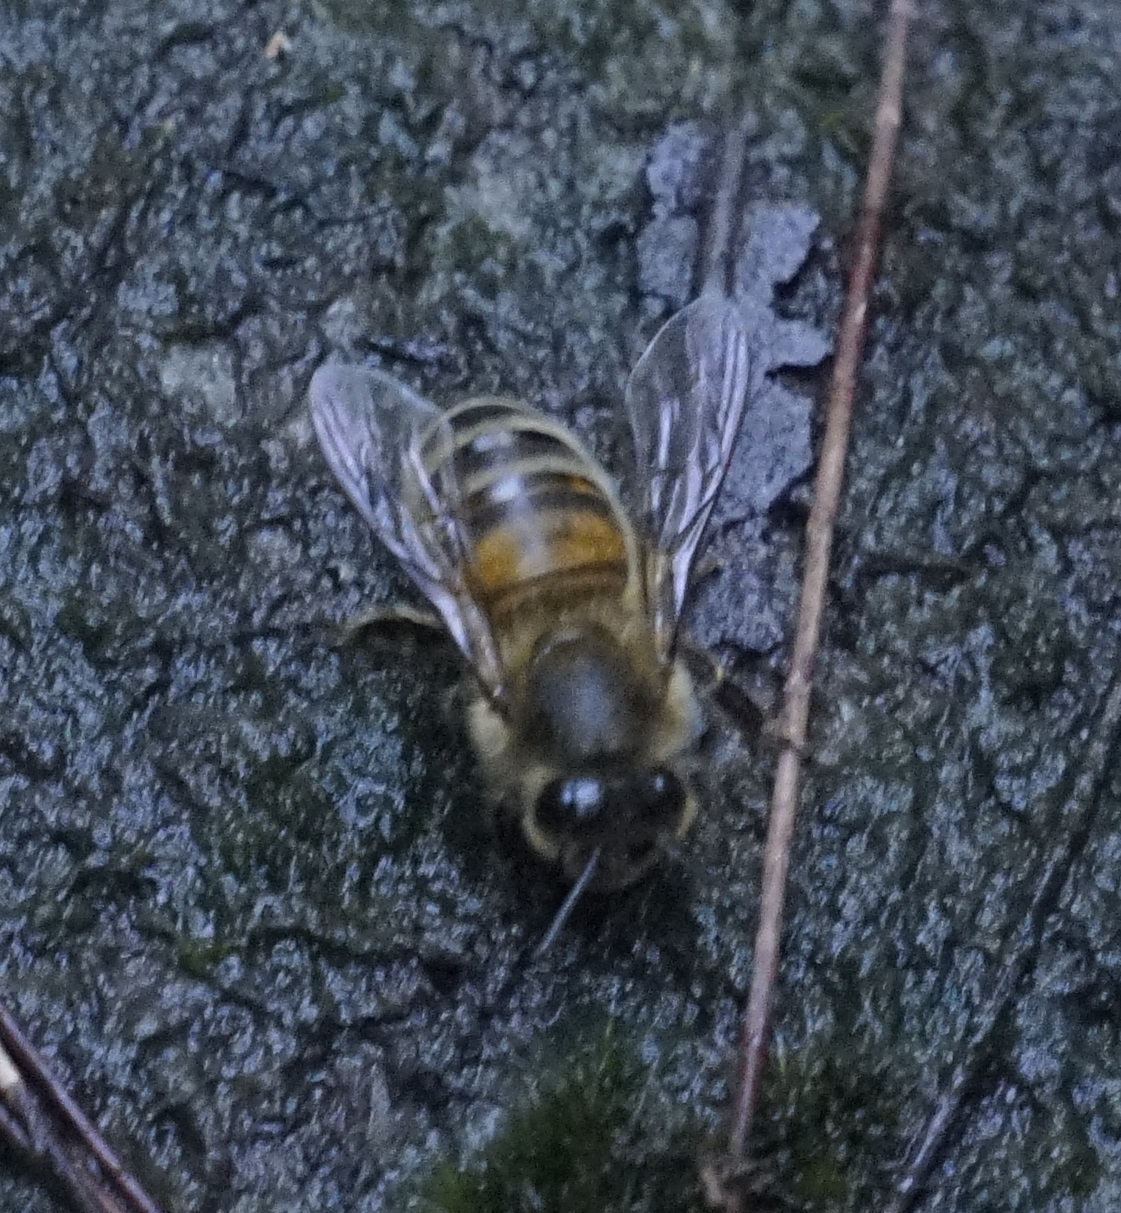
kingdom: Animalia
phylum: Arthropoda
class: Insecta
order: Hymenoptera
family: Apidae
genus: Apis
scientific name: Apis mellifera
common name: Honey bee
